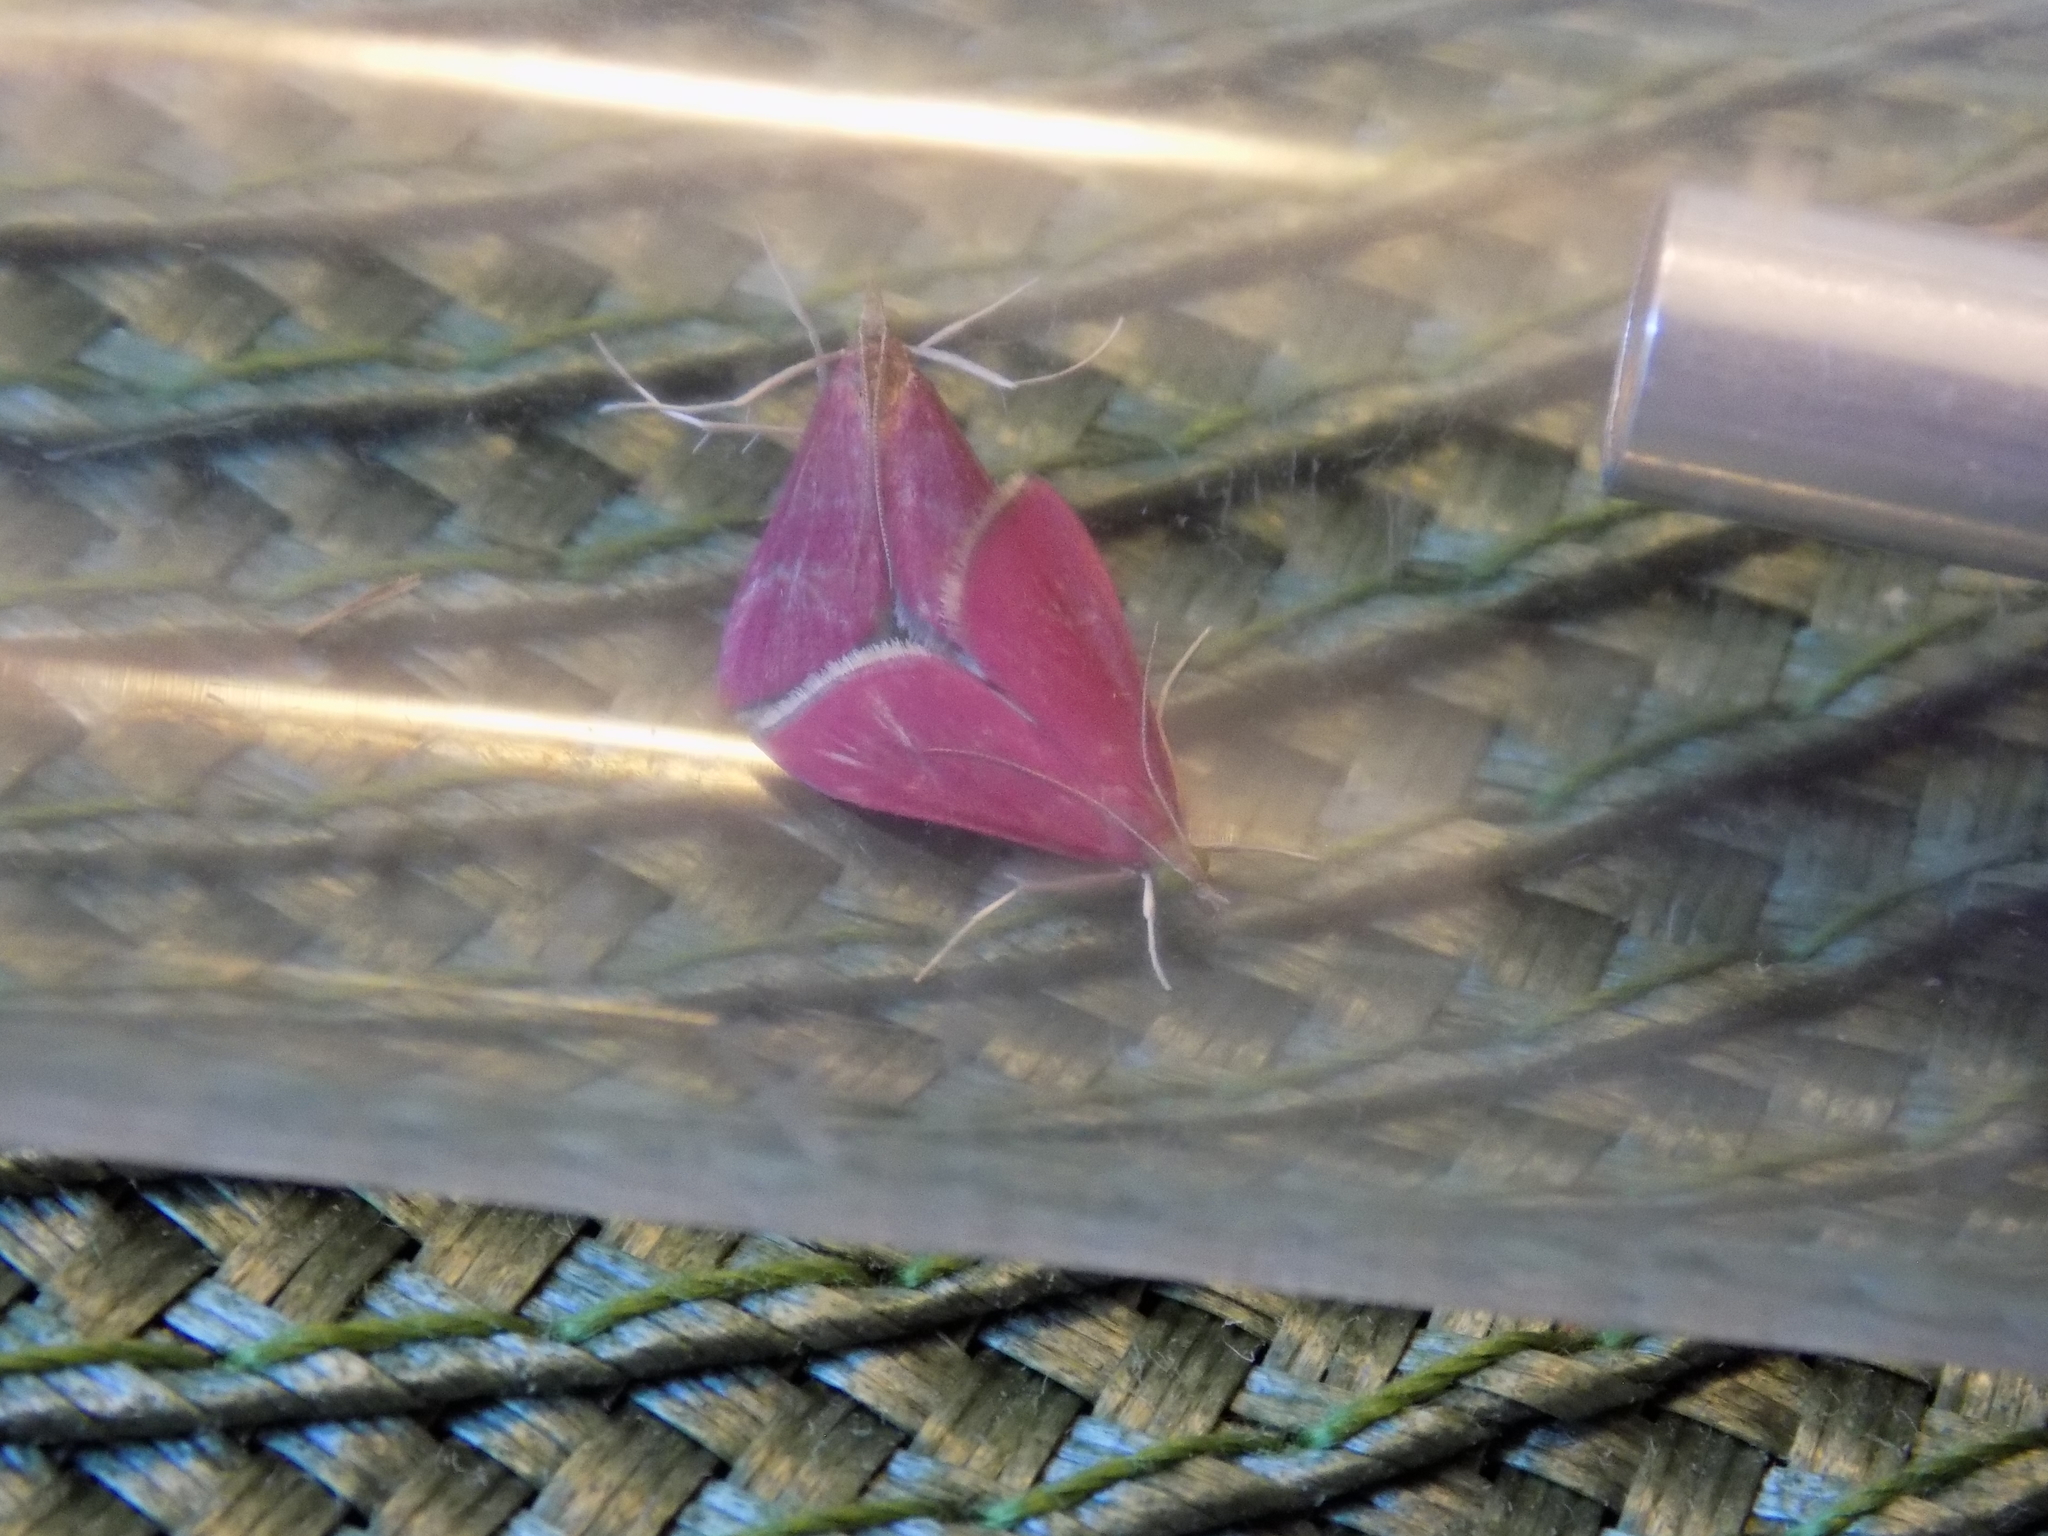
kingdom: Animalia
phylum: Arthropoda
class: Insecta
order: Lepidoptera
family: Crambidae
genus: Pyrausta
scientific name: Pyrausta inornatalis
